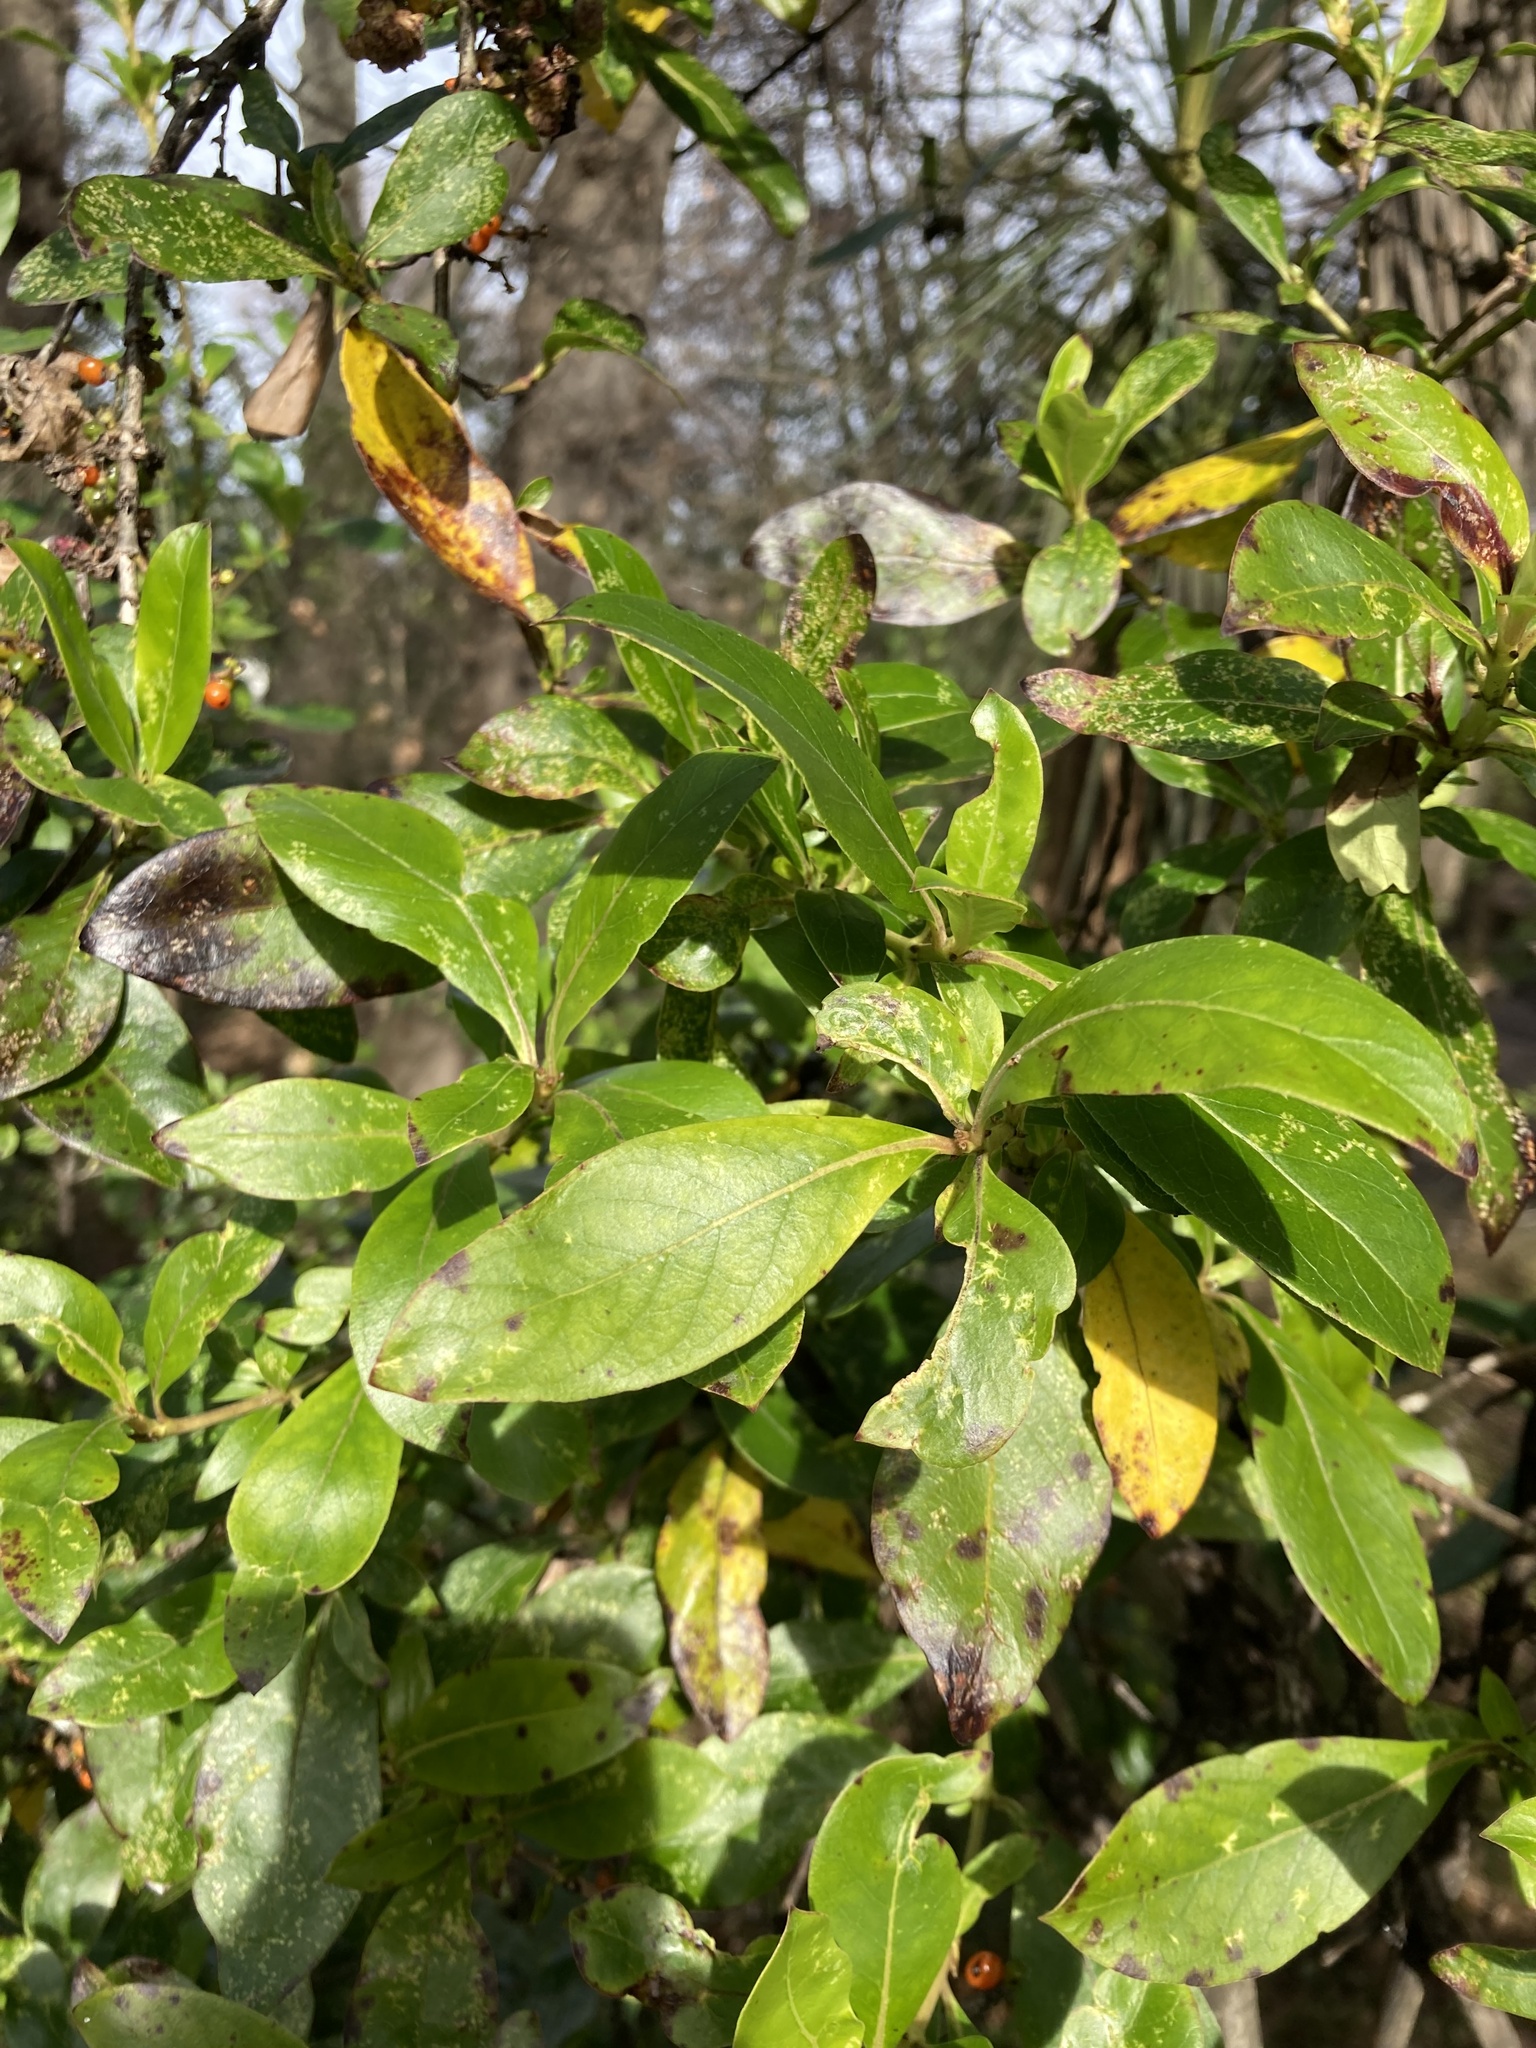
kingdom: Plantae
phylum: Tracheophyta
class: Magnoliopsida
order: Gentianales
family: Rubiaceae
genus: Coprosma
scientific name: Coprosma robusta
